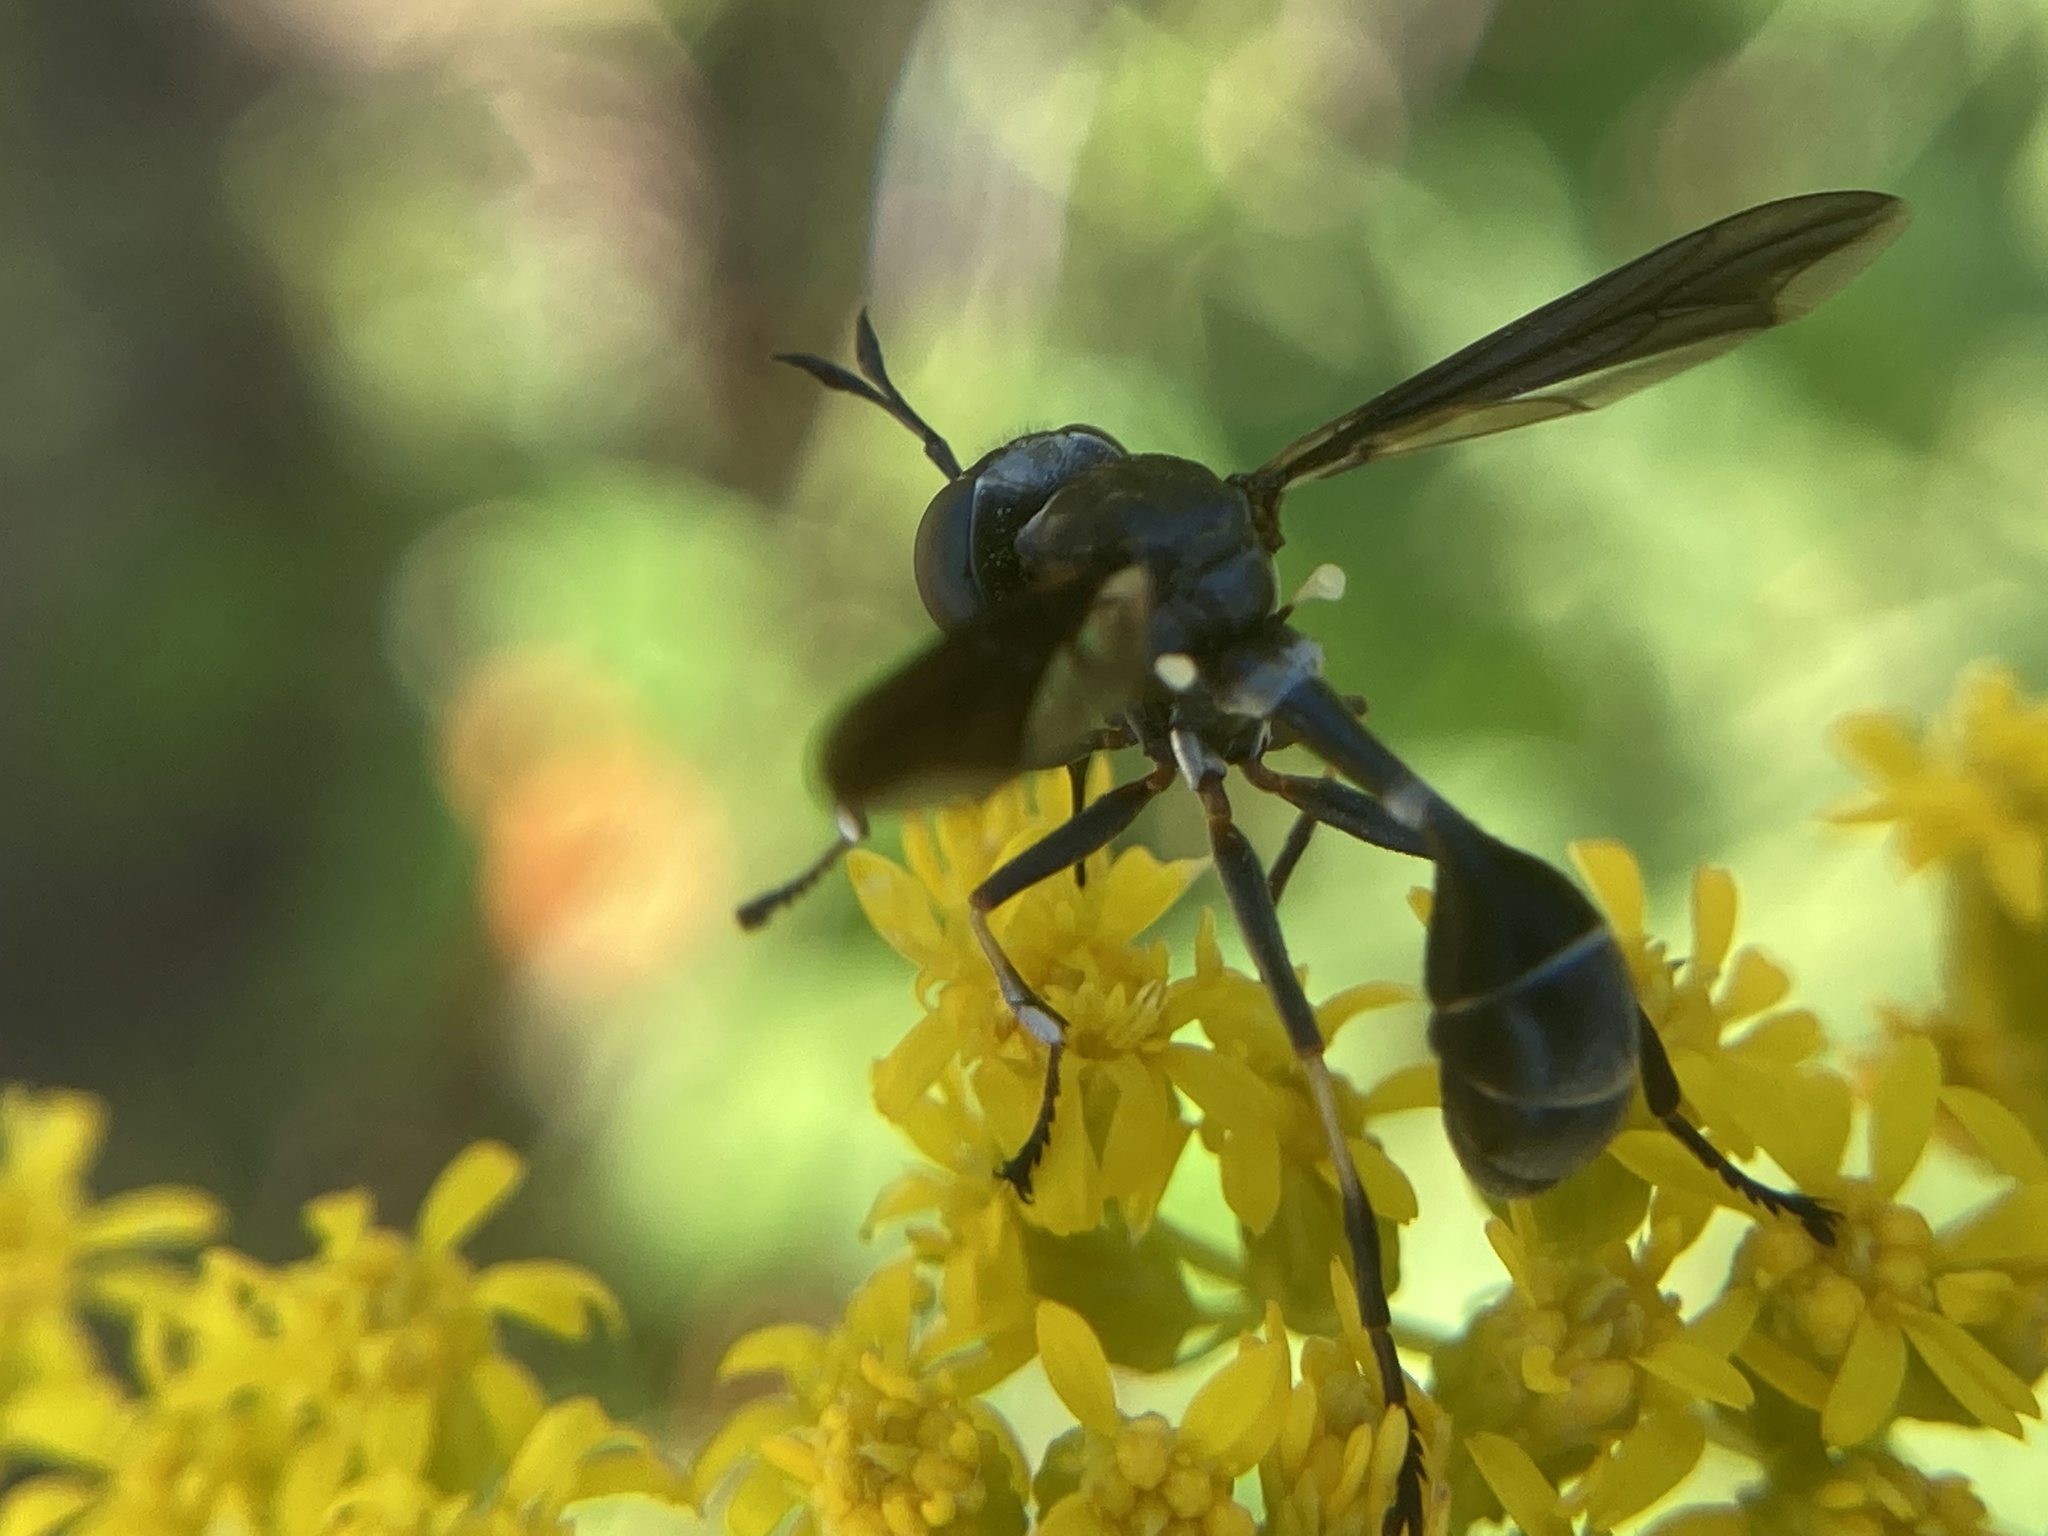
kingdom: Animalia
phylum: Arthropoda
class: Insecta
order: Diptera
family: Conopidae
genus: Physocephala
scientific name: Physocephala tibialis
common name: Common eastern physocephala
